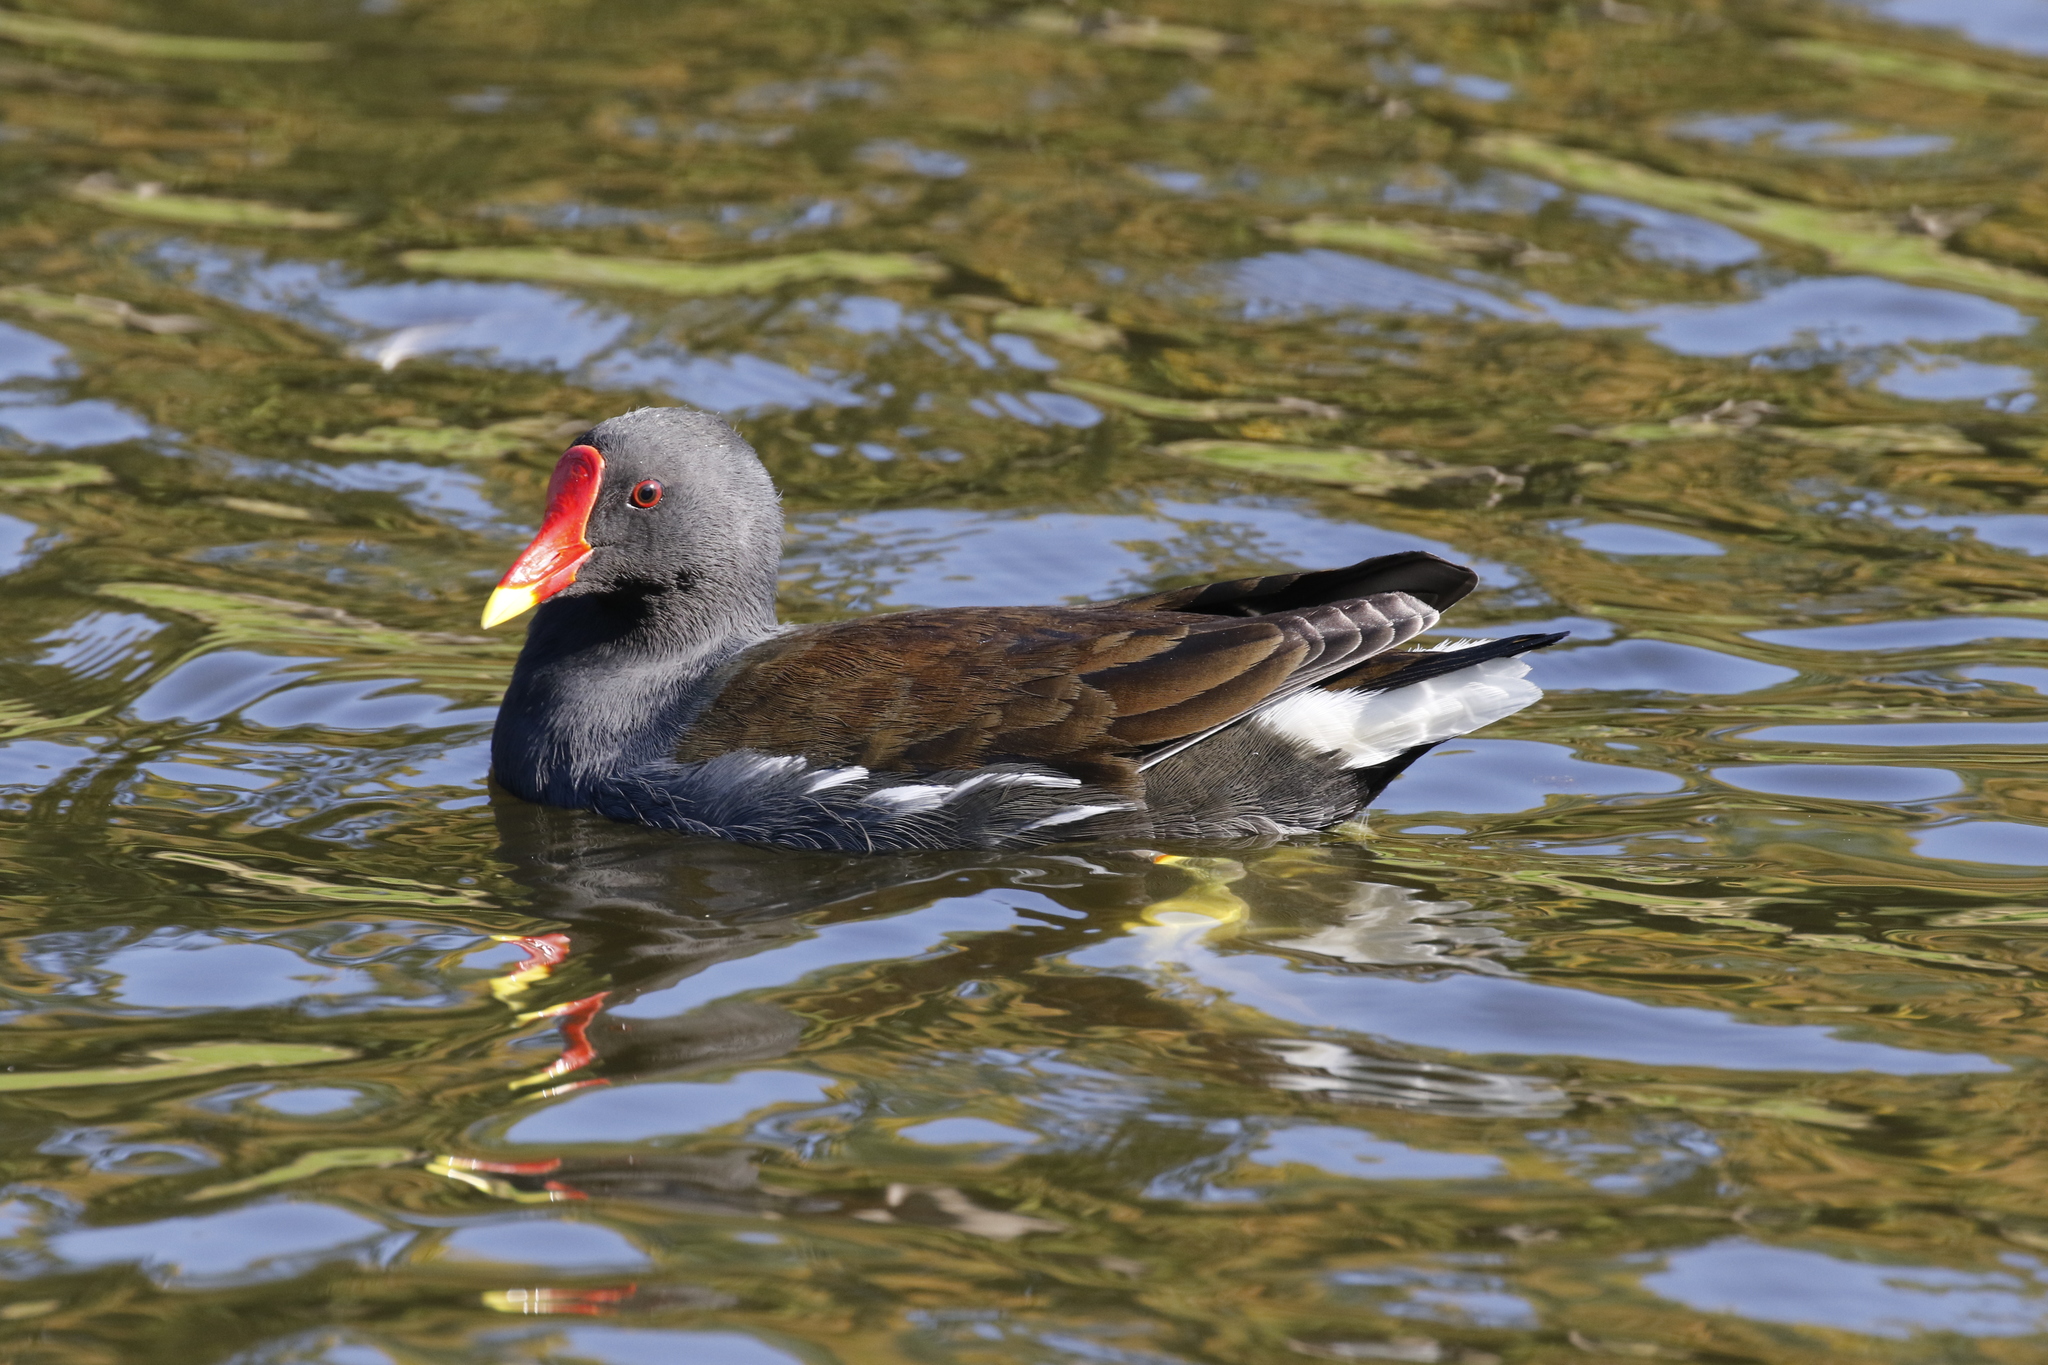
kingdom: Animalia
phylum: Chordata
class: Aves
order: Gruiformes
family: Rallidae
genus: Gallinula
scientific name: Gallinula chloropus
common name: Common moorhen
